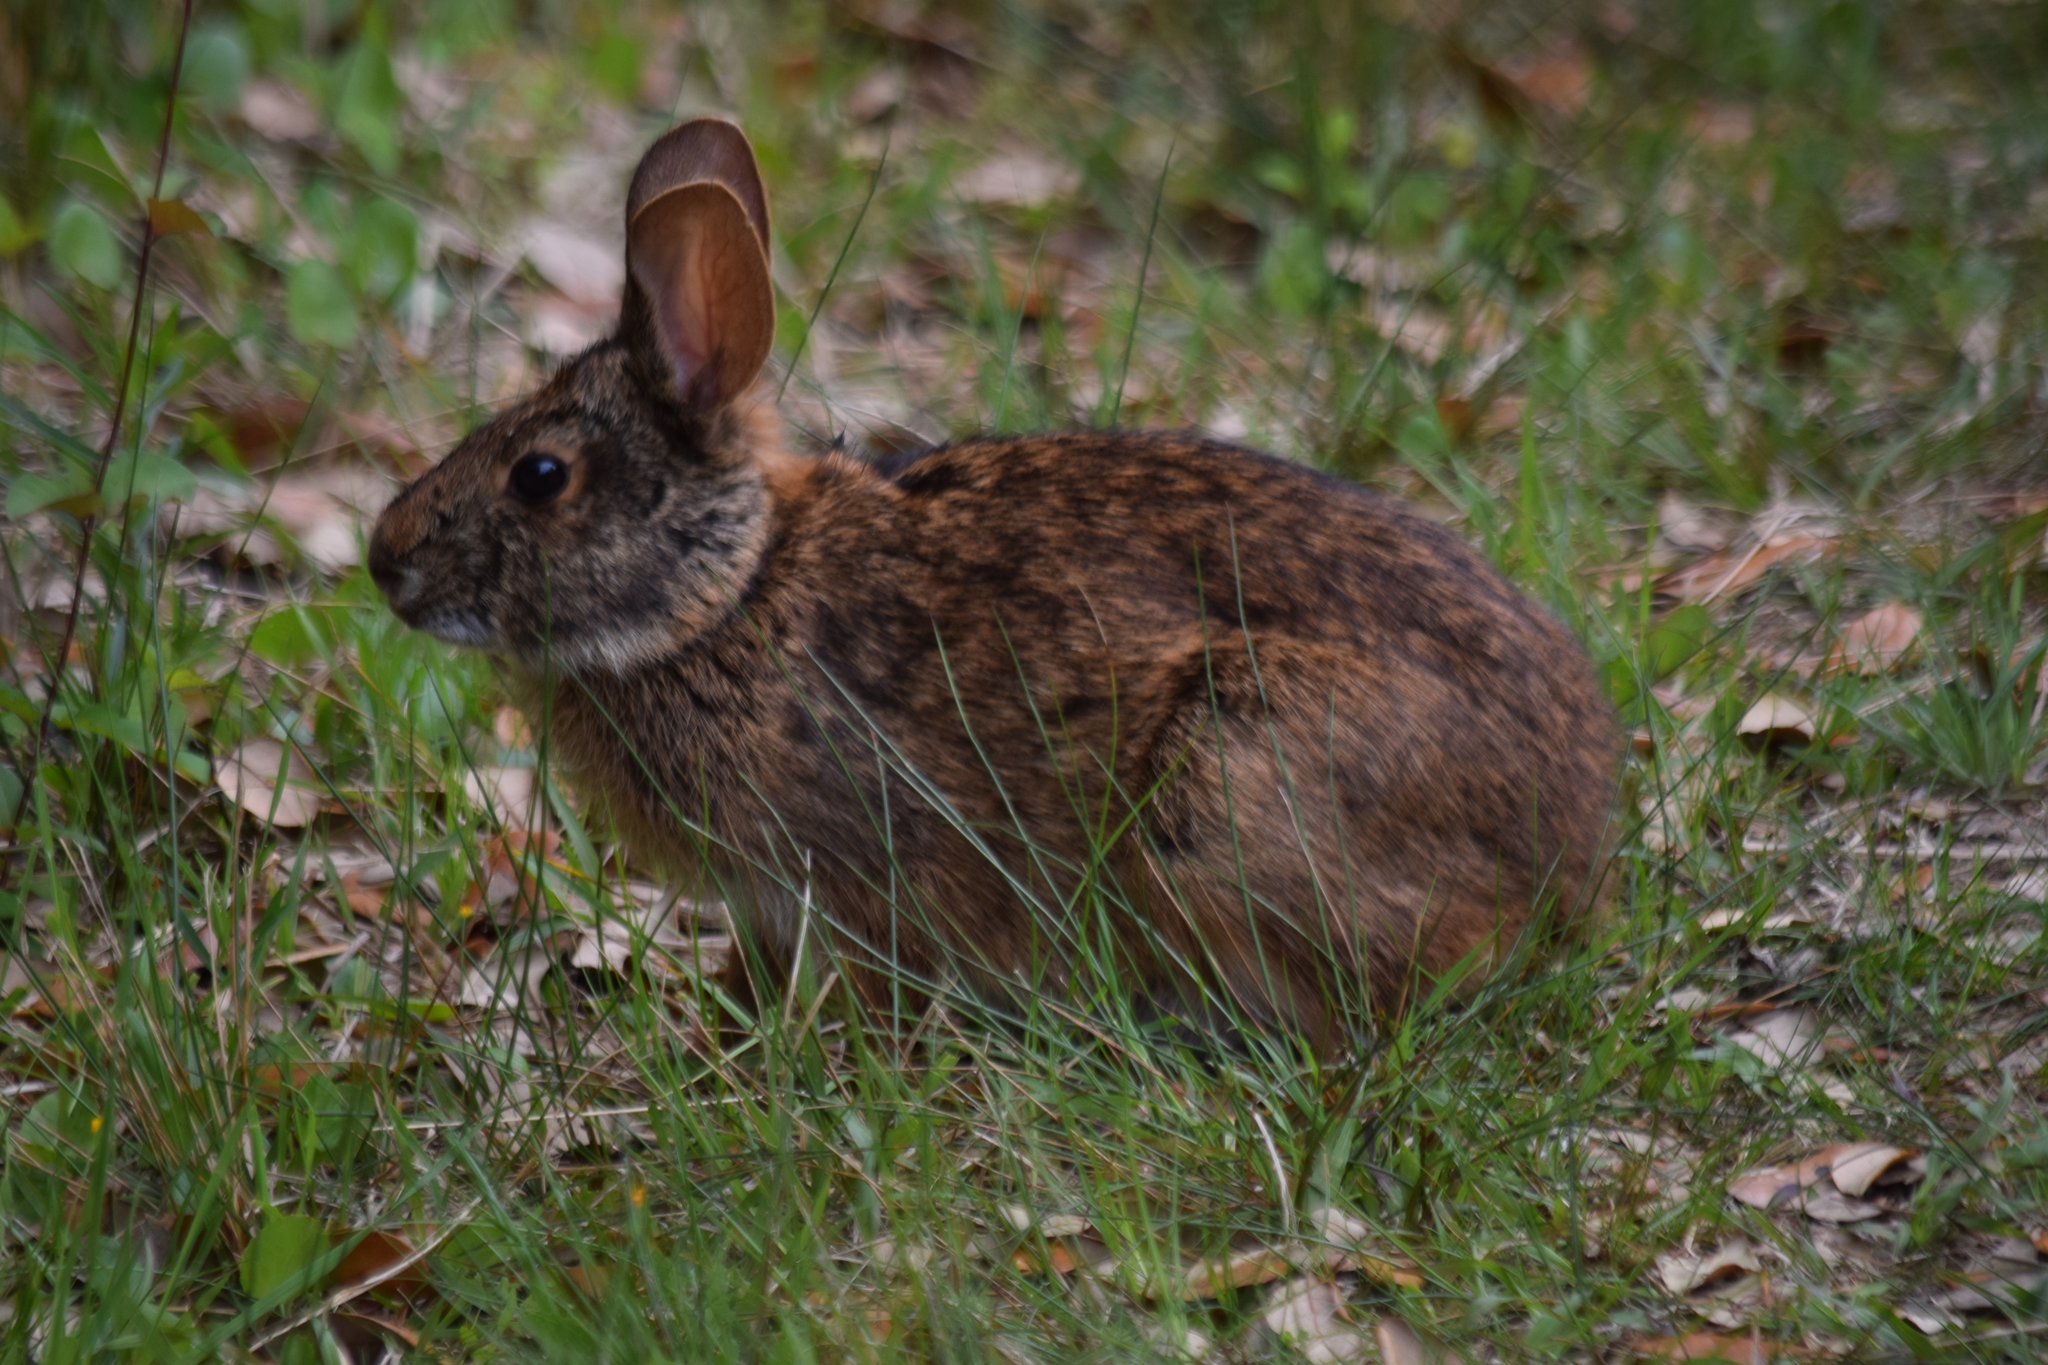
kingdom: Animalia
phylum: Chordata
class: Mammalia
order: Lagomorpha
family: Leporidae
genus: Sylvilagus
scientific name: Sylvilagus palustris
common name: Marsh rabbit
